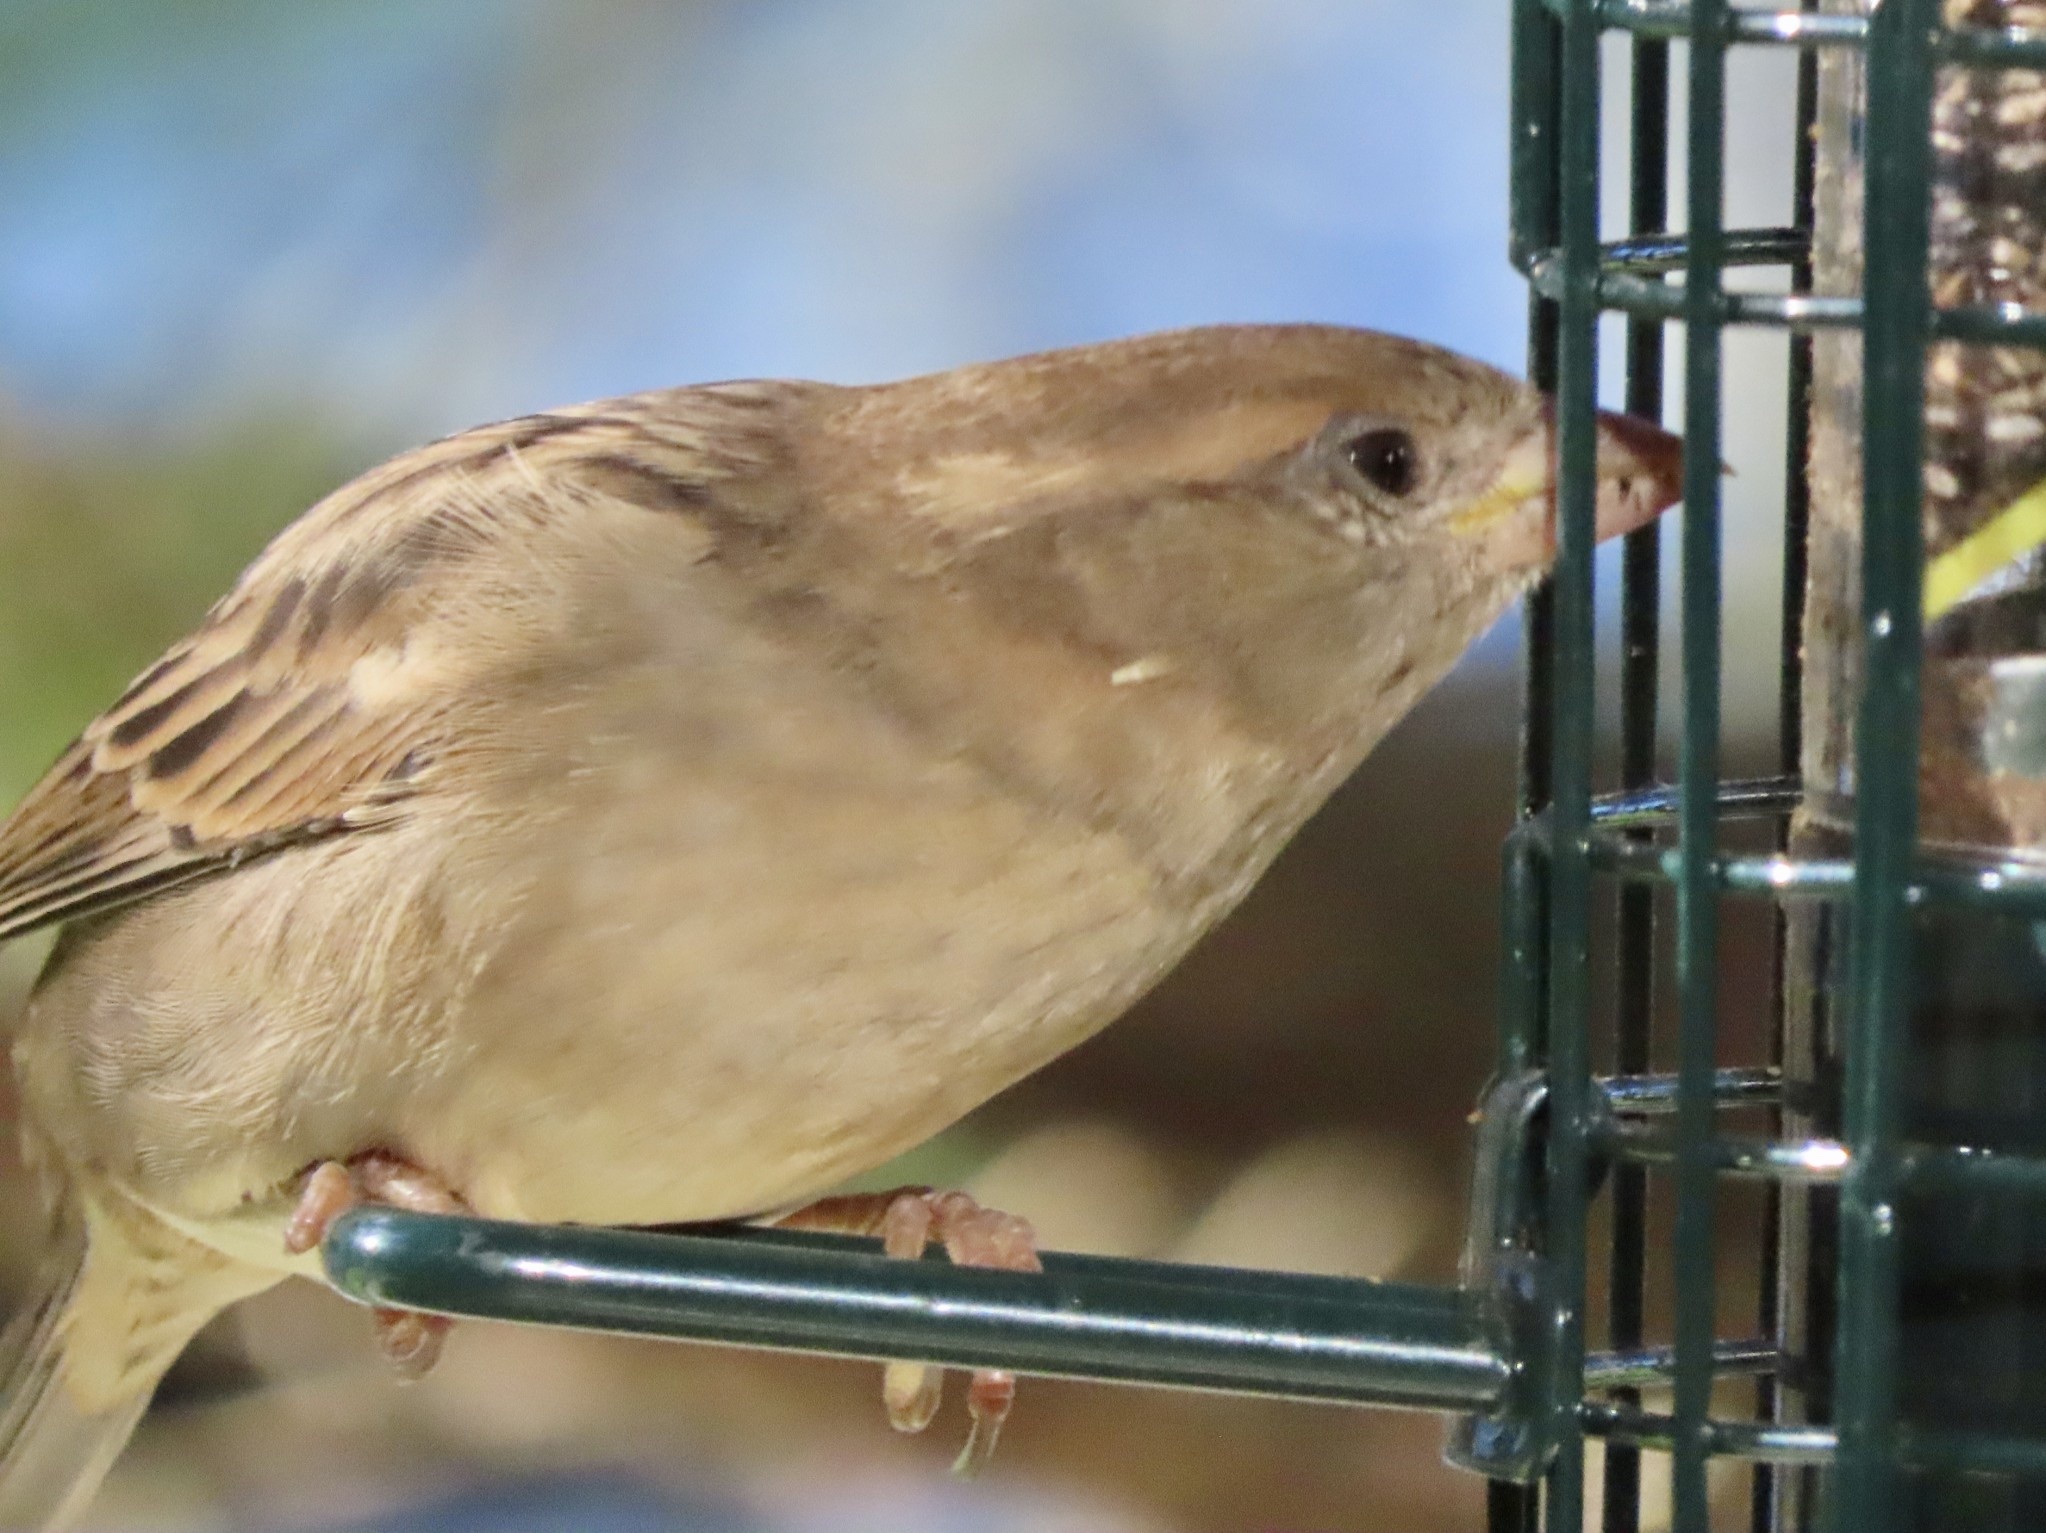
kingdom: Animalia
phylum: Chordata
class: Aves
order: Passeriformes
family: Passeridae
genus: Passer
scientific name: Passer domesticus
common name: House sparrow
